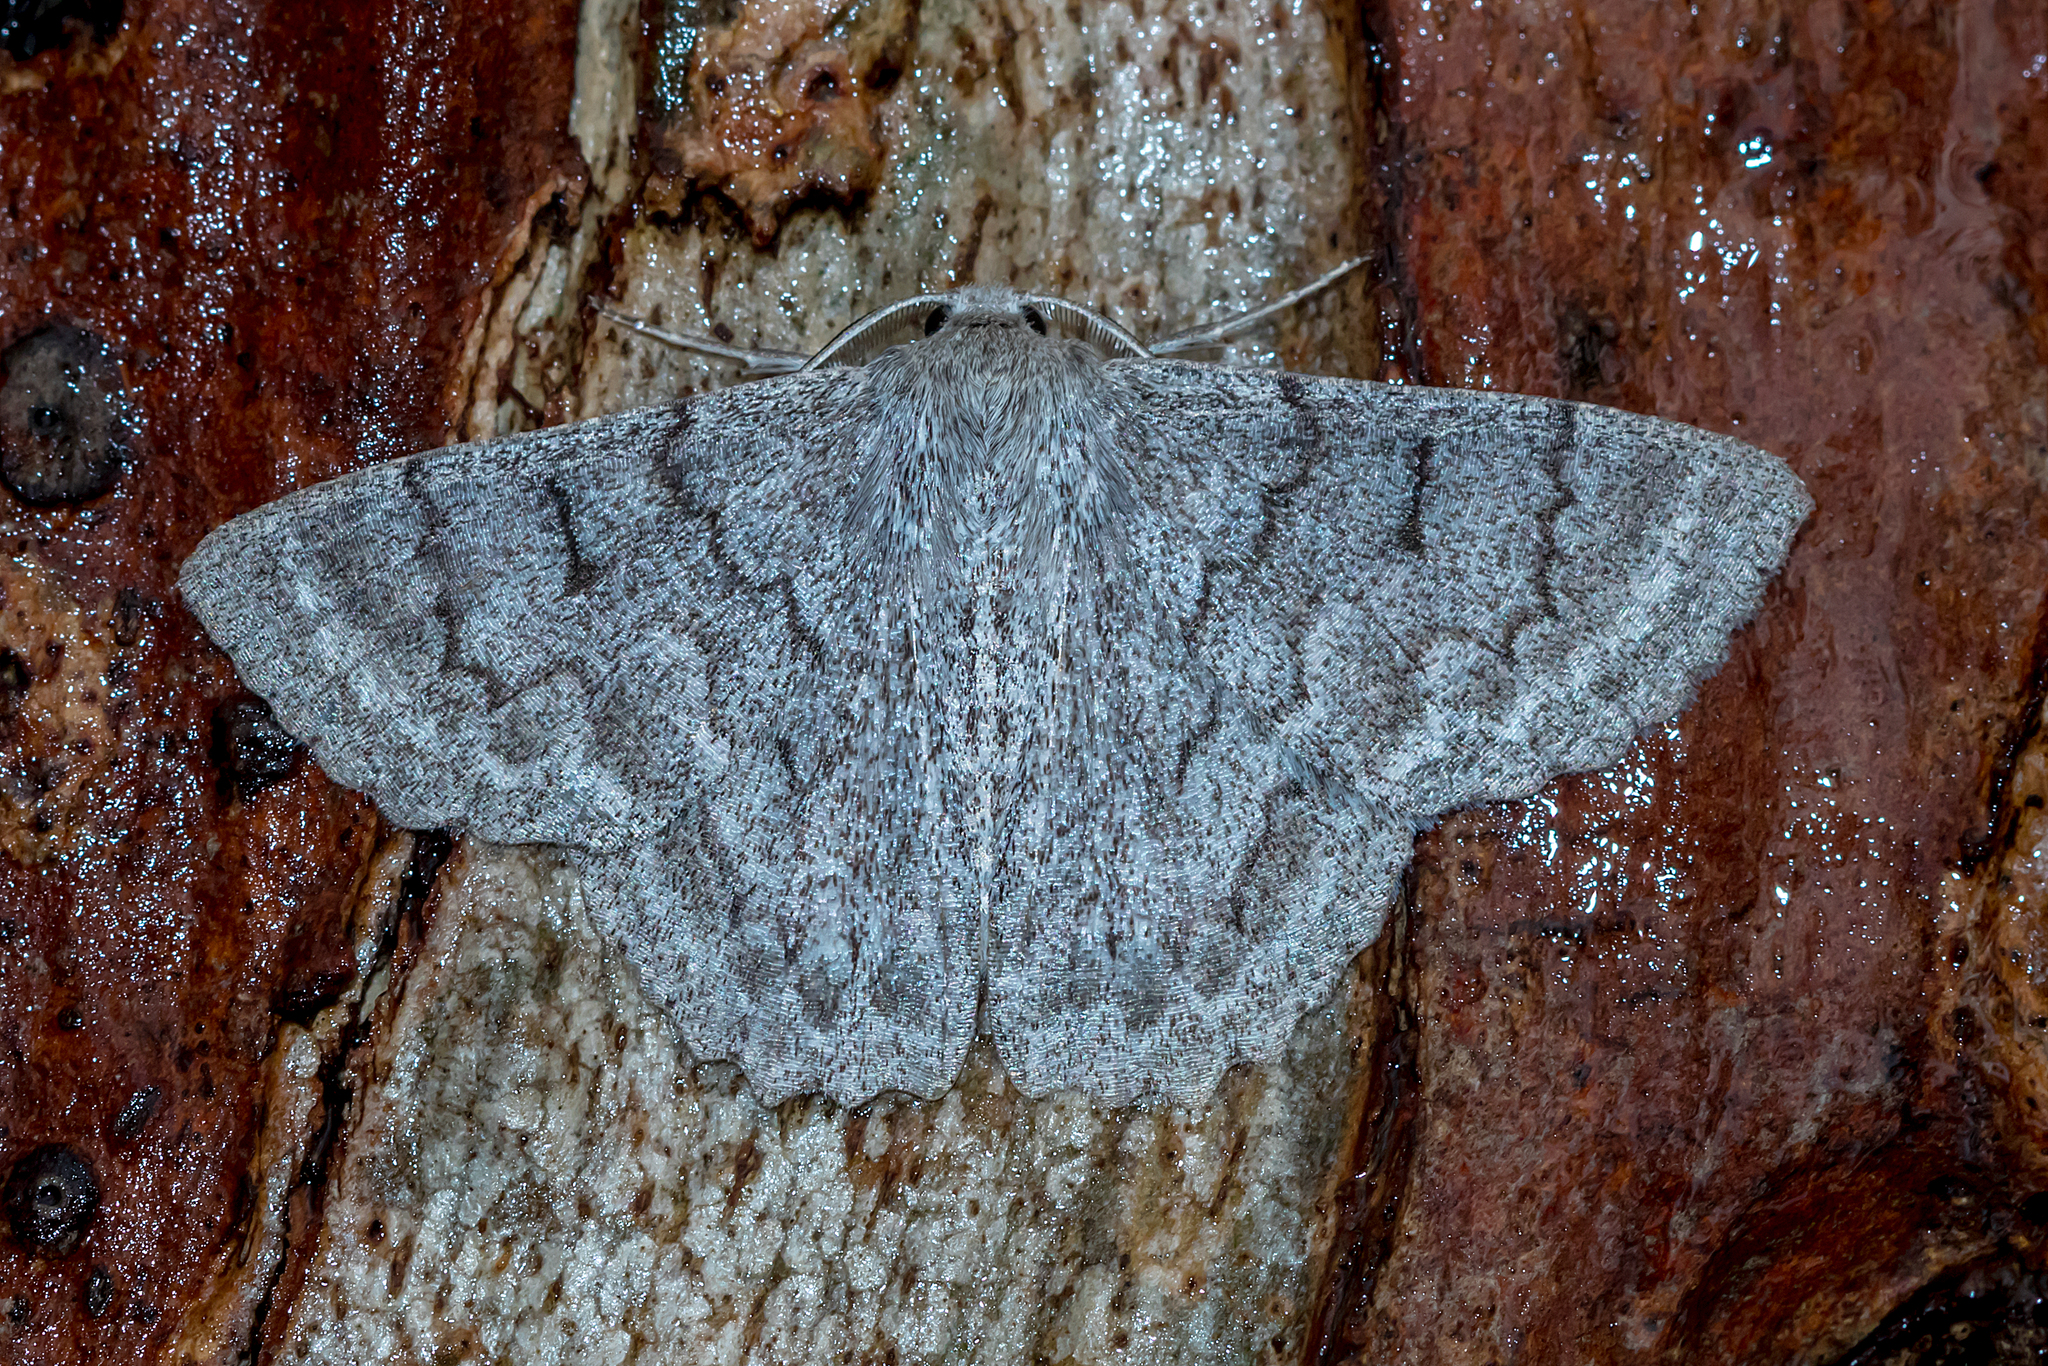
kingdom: Animalia
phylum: Arthropoda
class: Insecta
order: Lepidoptera
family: Geometridae
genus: Crypsiphona
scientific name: Crypsiphona ocultaria
